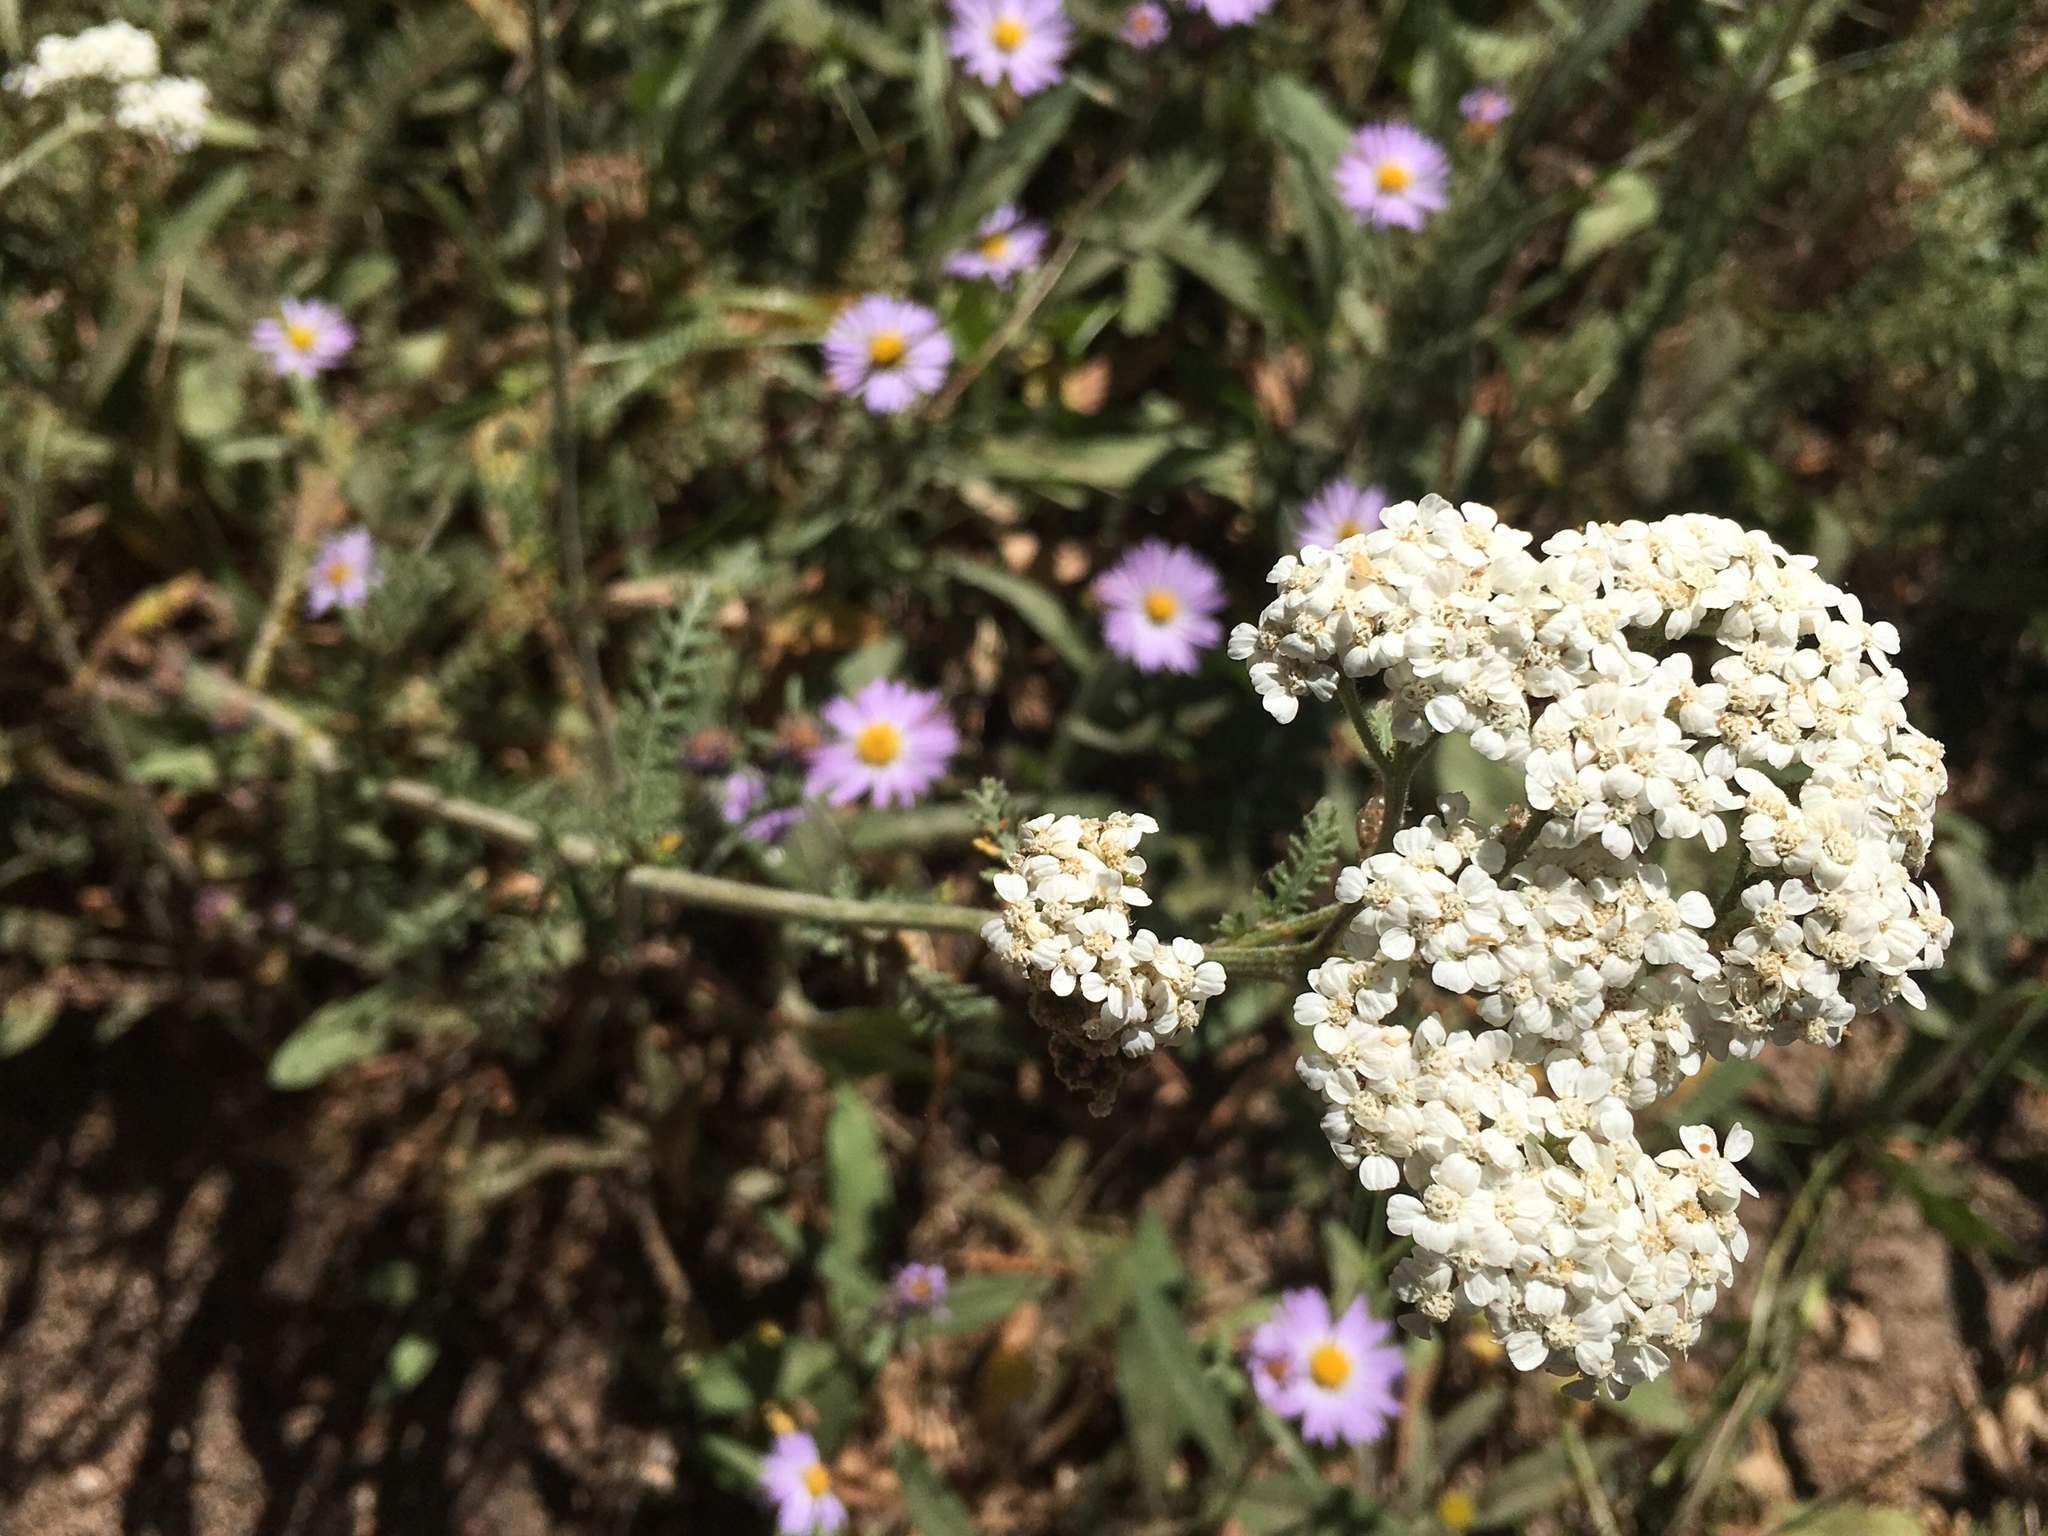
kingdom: Plantae
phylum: Tracheophyta
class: Magnoliopsida
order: Asterales
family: Asteraceae
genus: Achillea
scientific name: Achillea millefolium
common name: Yarrow
